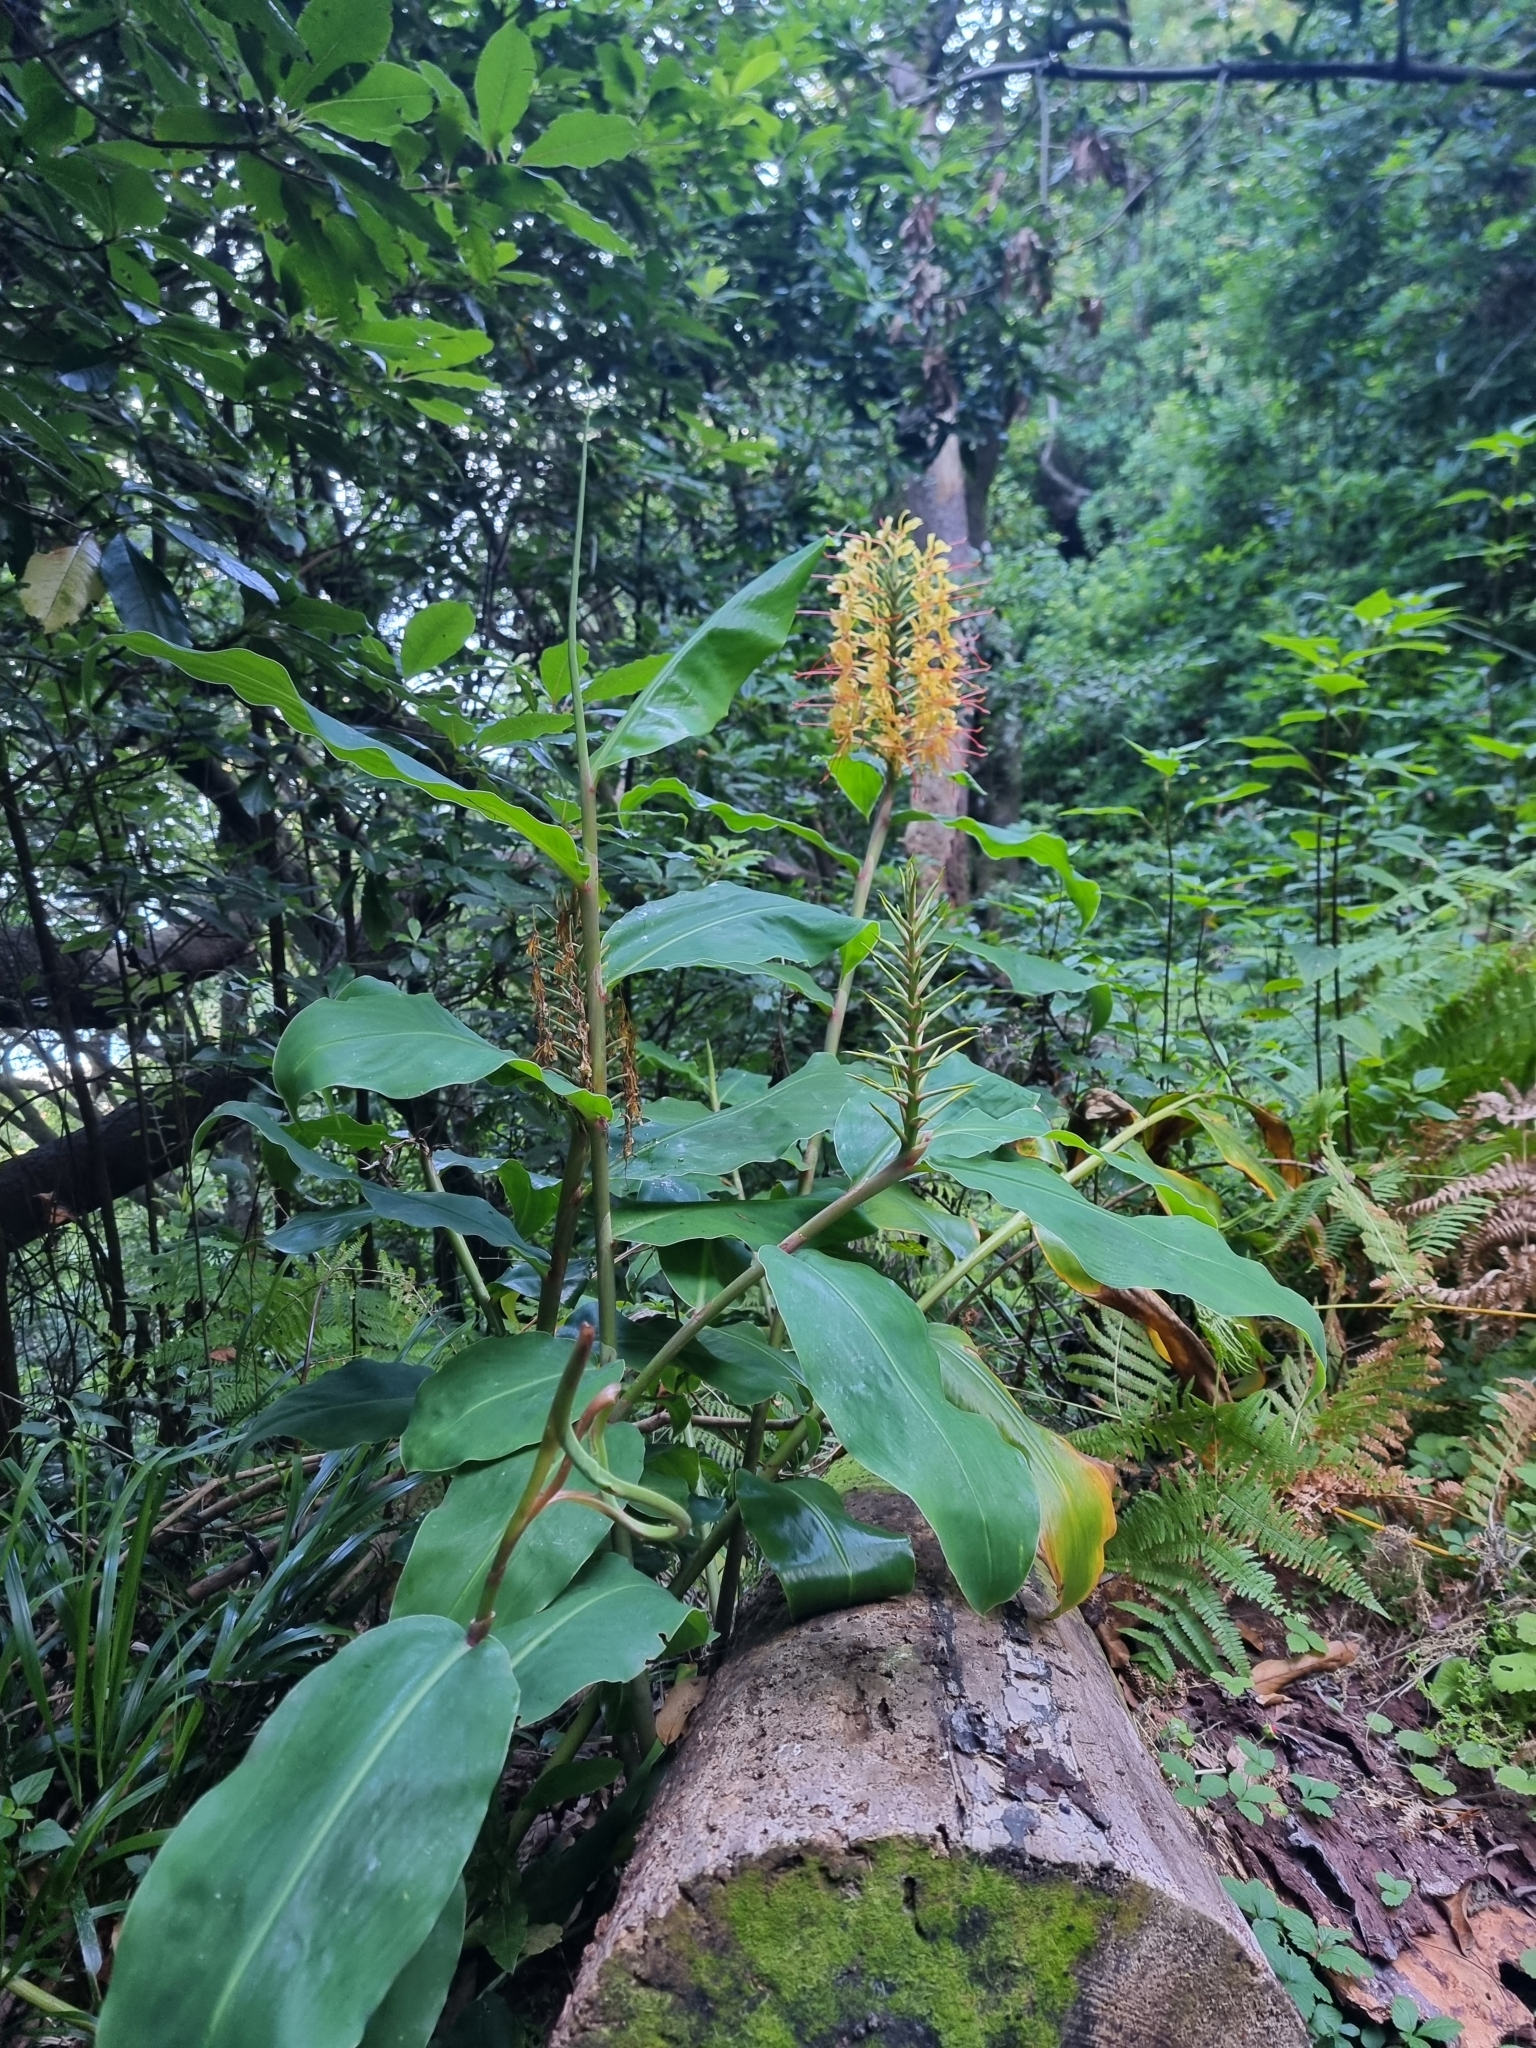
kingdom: Plantae
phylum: Tracheophyta
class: Liliopsida
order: Zingiberales
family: Zingiberaceae
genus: Hedychium
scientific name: Hedychium gardnerianum
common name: Himalayan ginger
